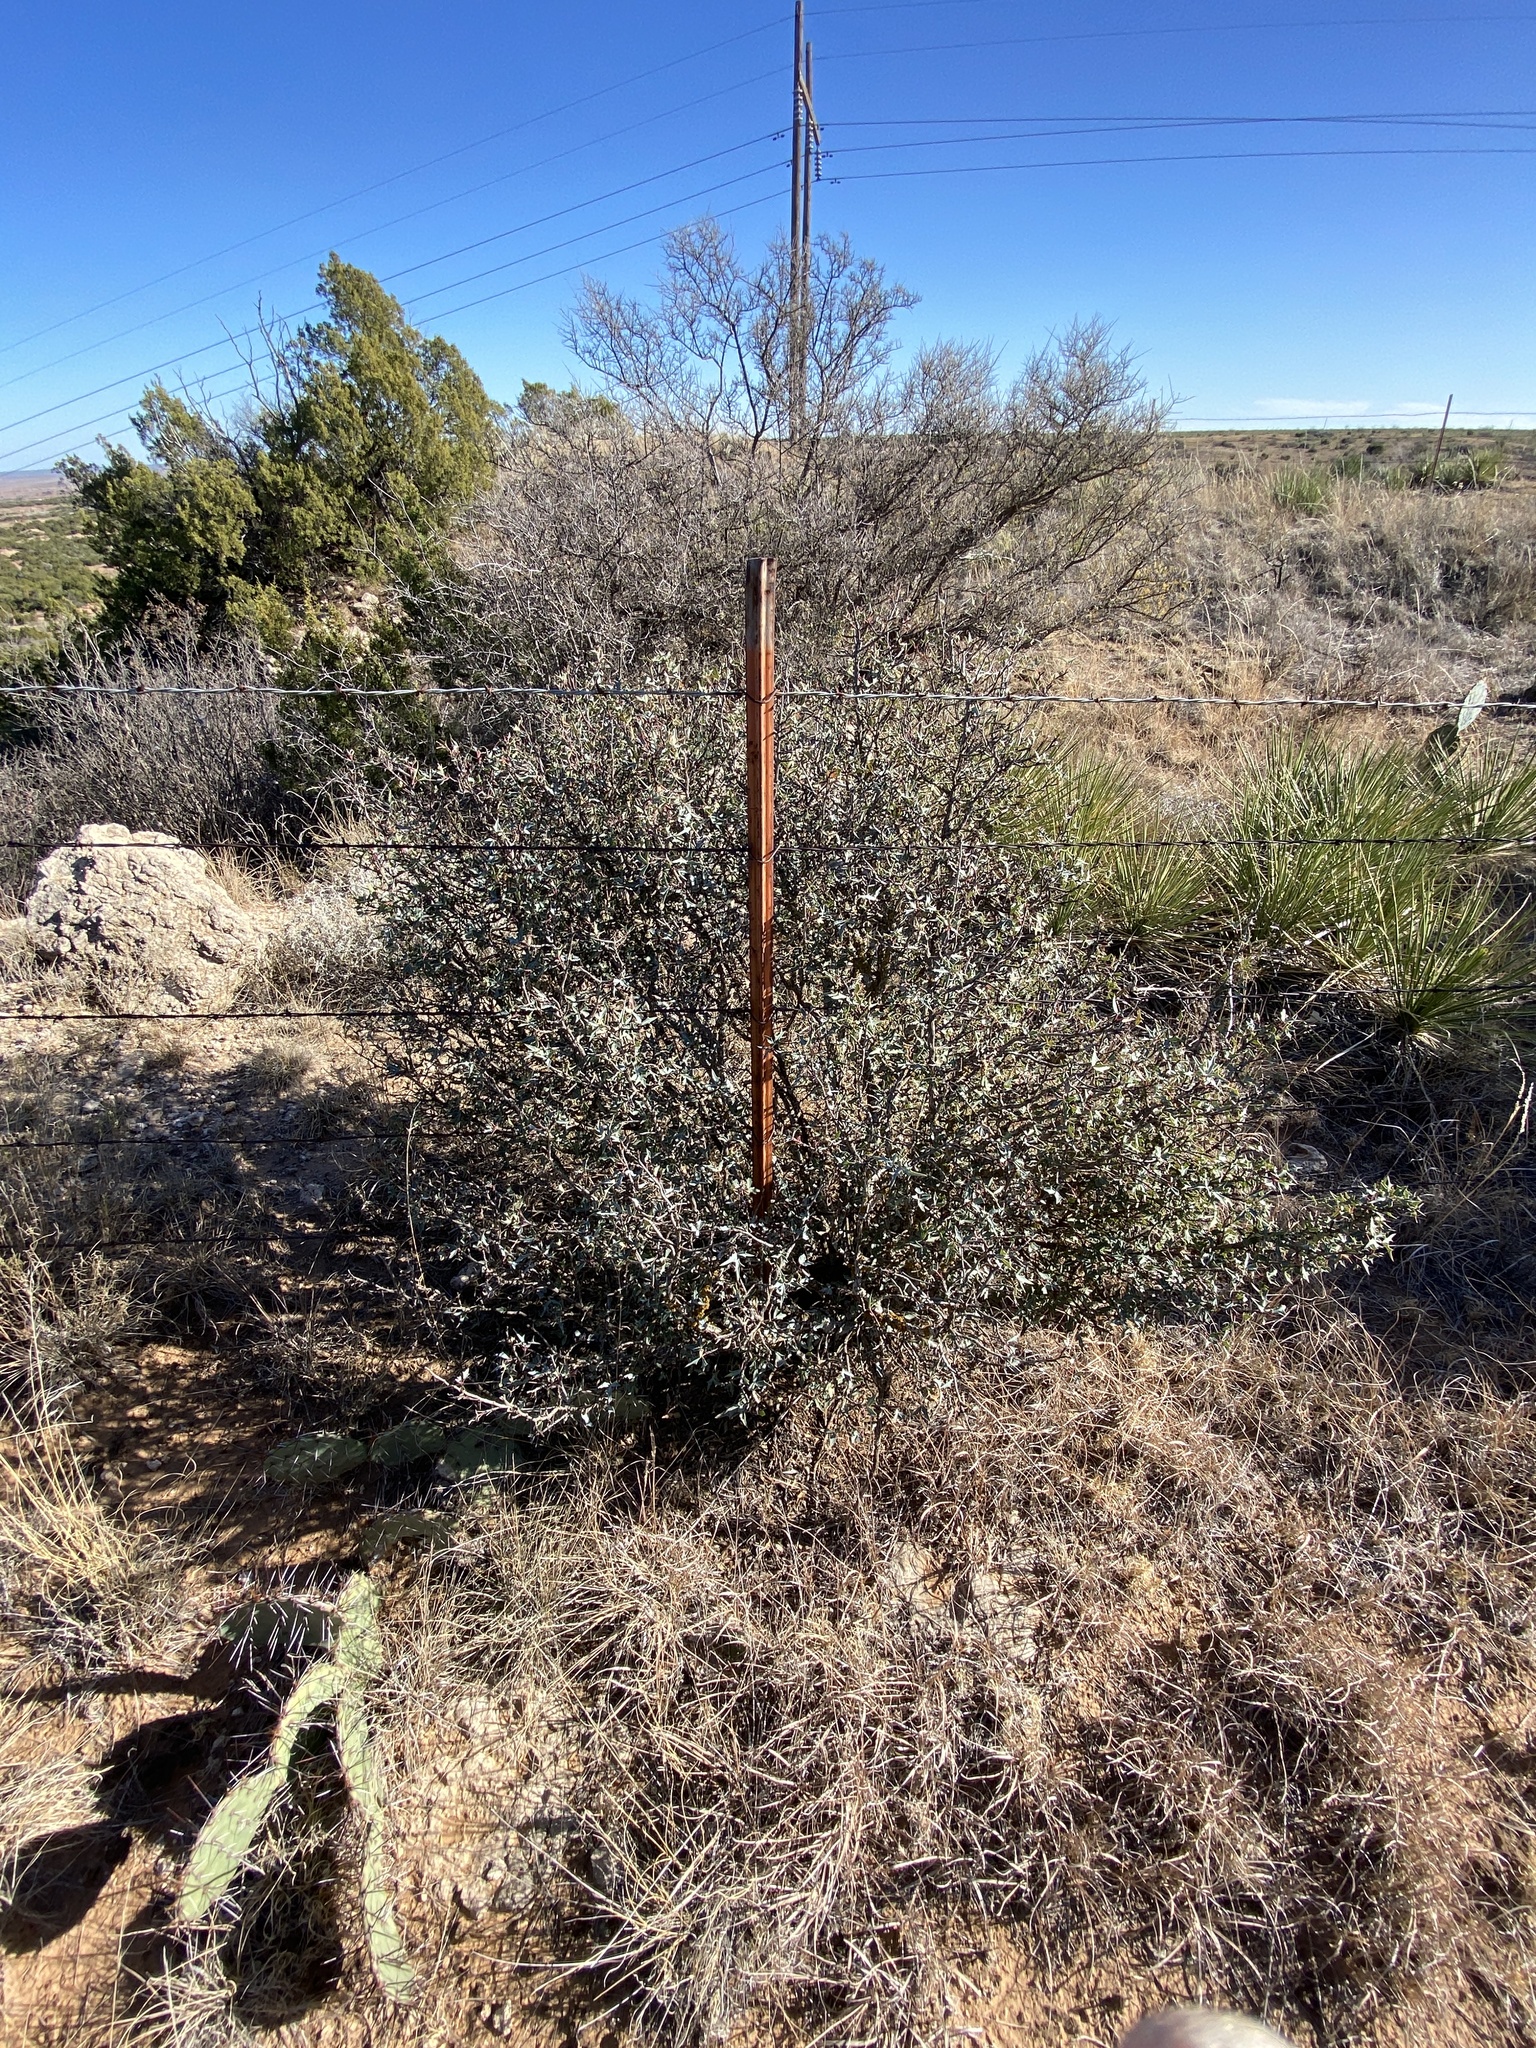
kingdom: Plantae
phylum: Tracheophyta
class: Magnoliopsida
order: Ranunculales
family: Berberidaceae
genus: Alloberberis
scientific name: Alloberberis trifoliolata
